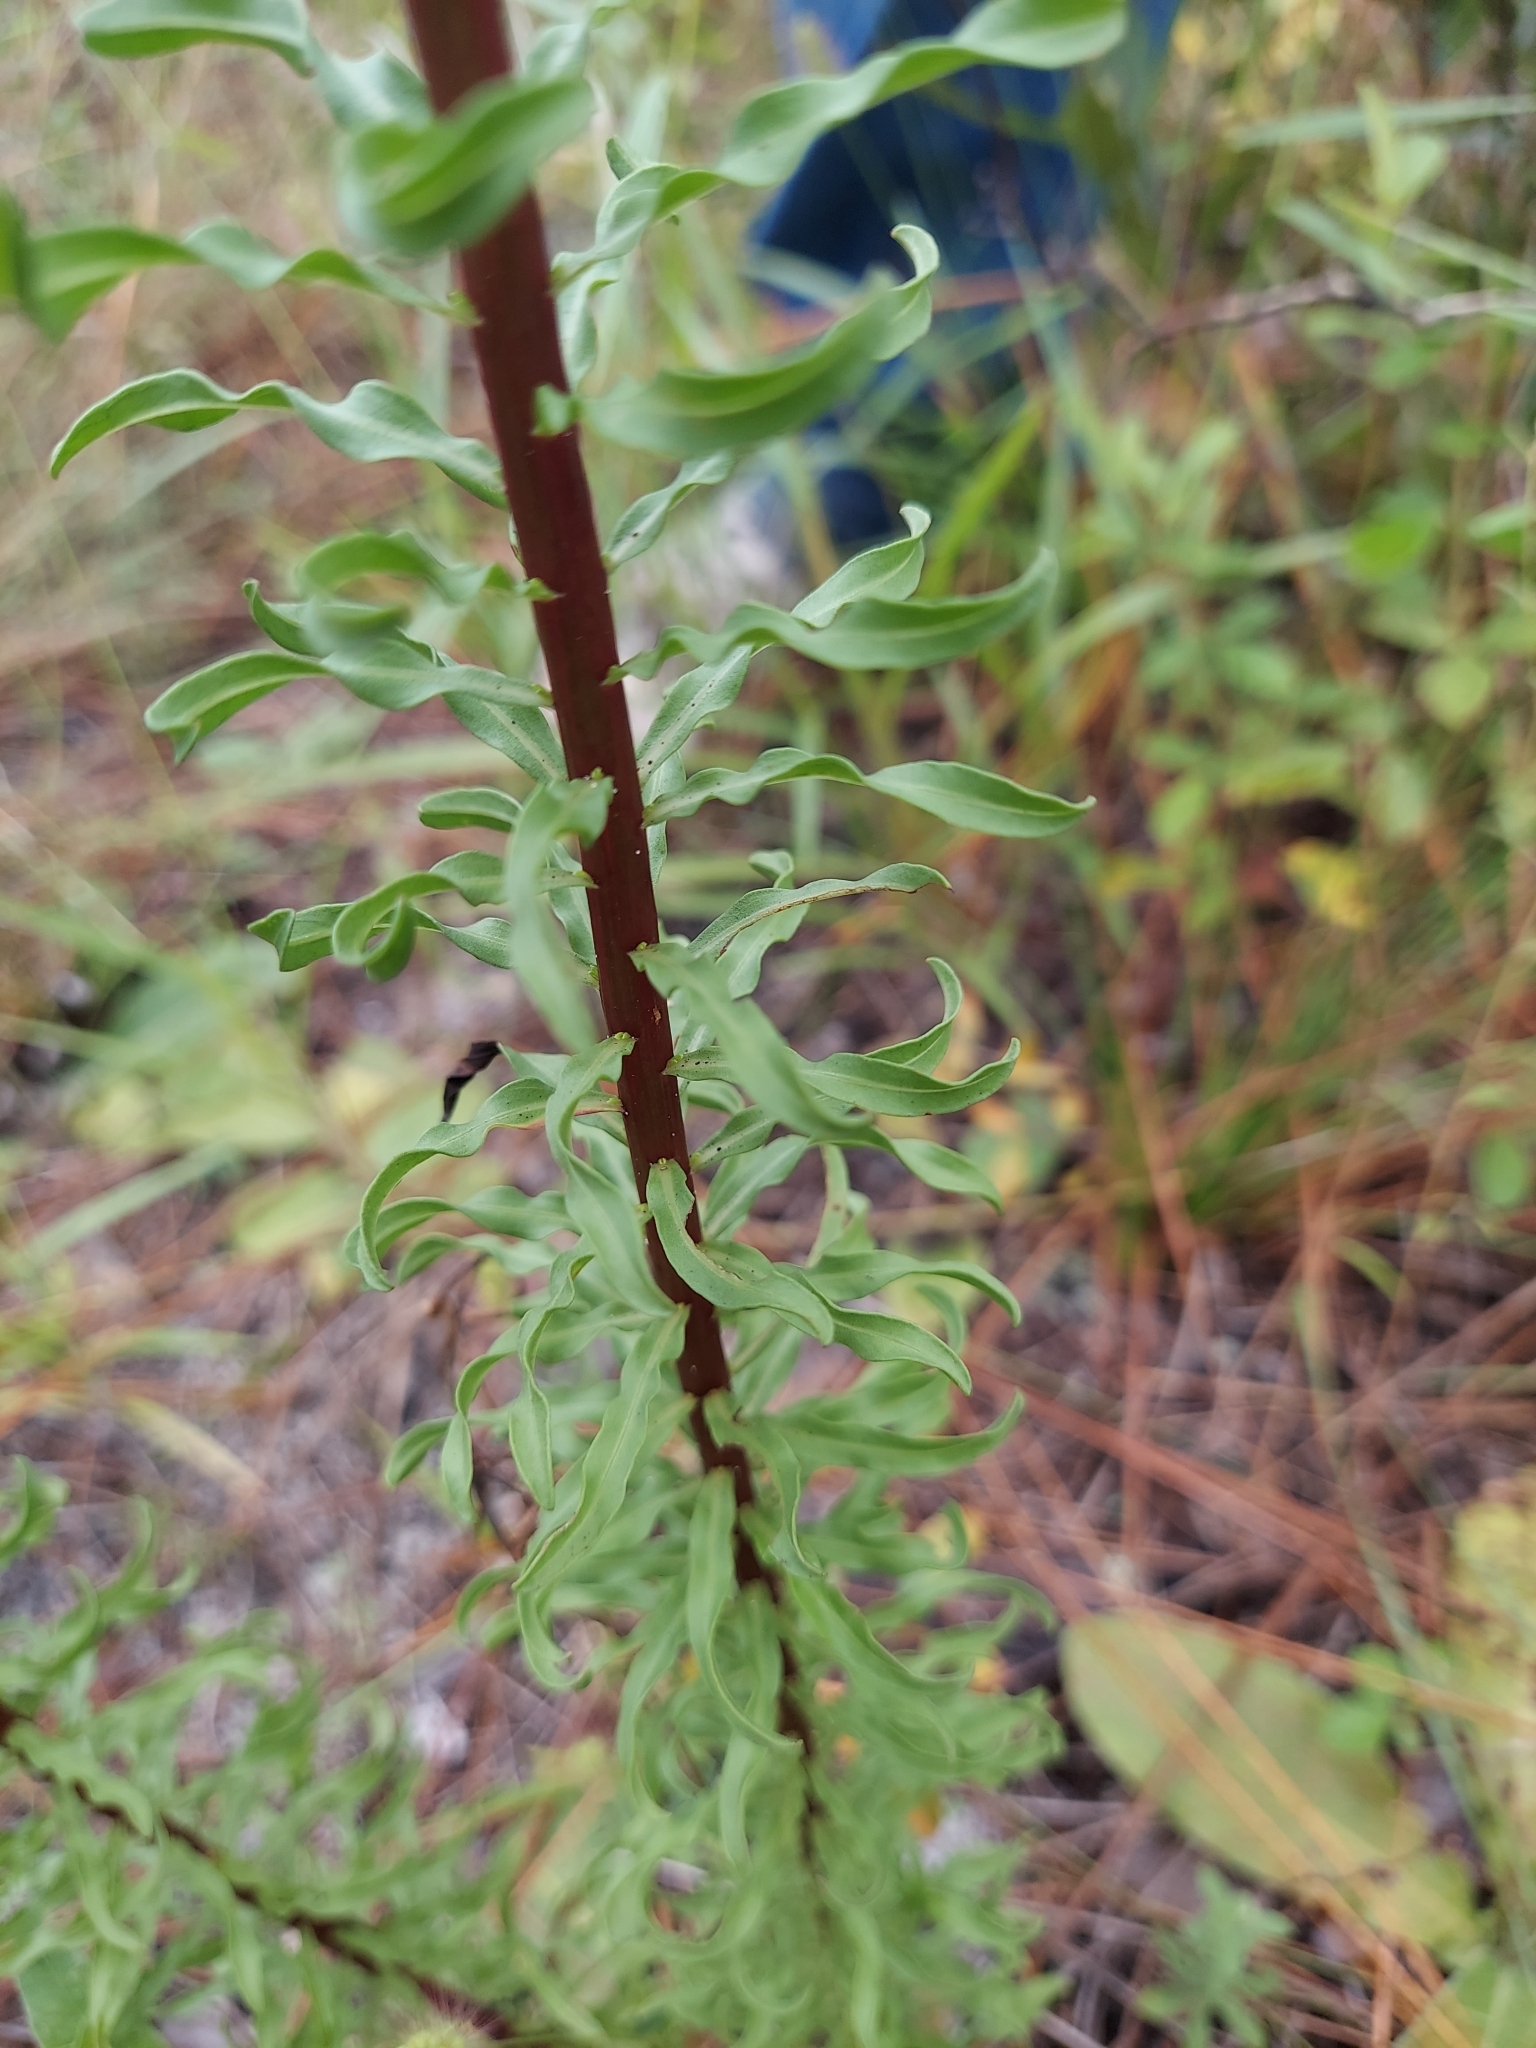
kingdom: Plantae
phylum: Tracheophyta
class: Magnoliopsida
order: Asterales
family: Asteraceae
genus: Chrysopsis
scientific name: Chrysopsis linearifolia
